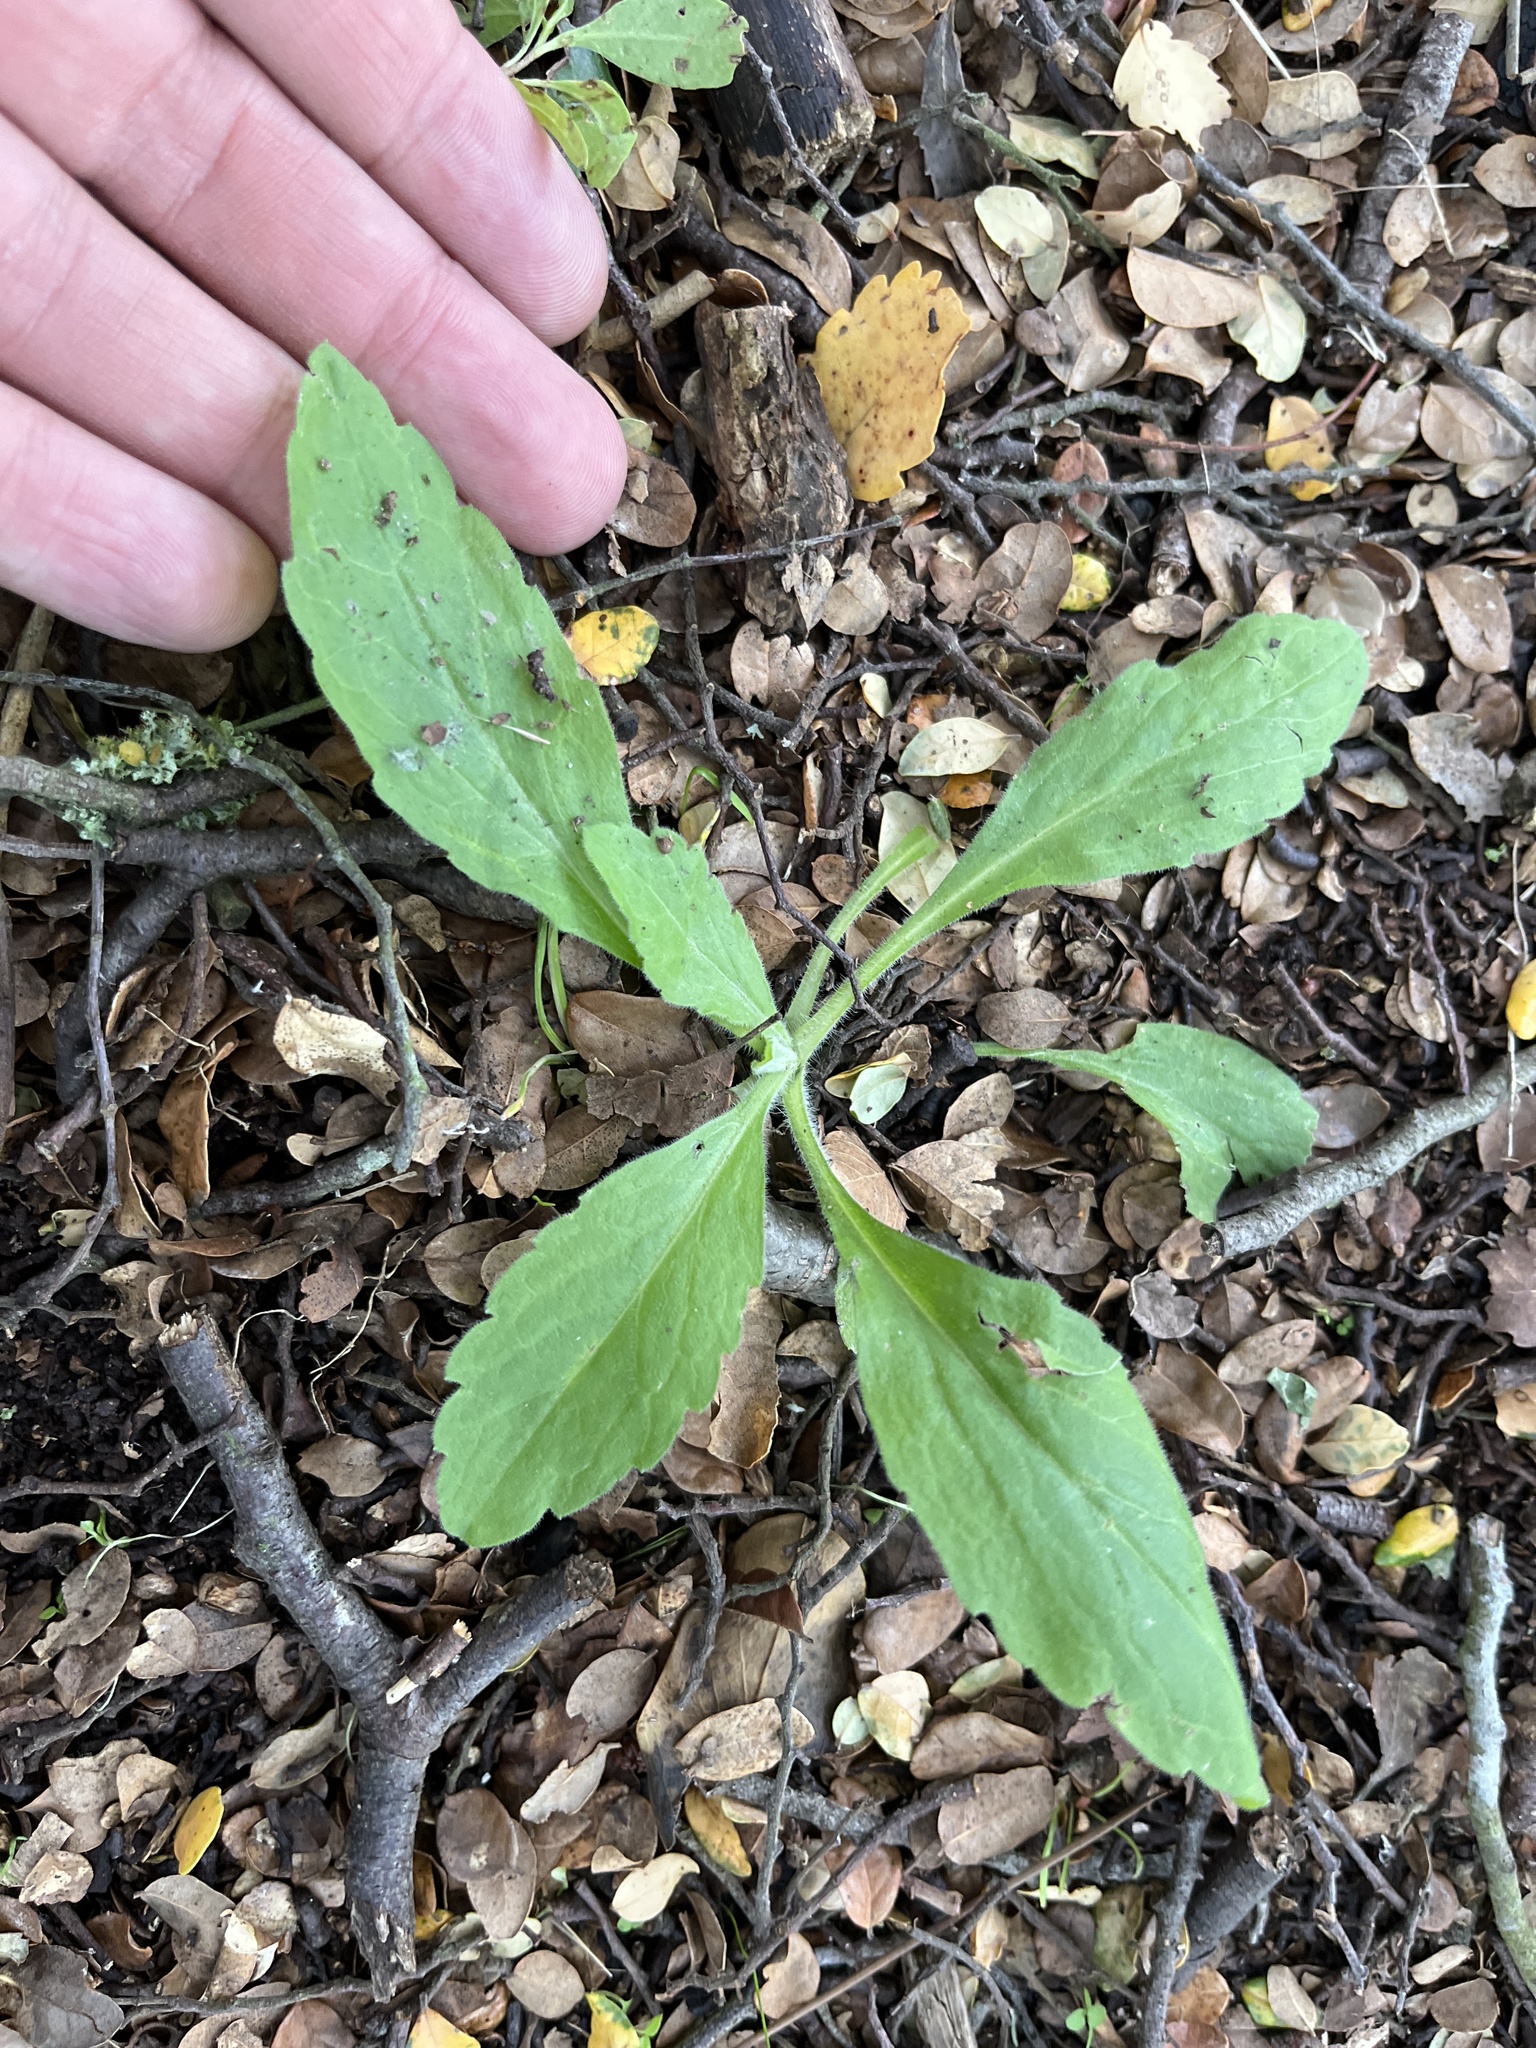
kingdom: Plantae
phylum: Tracheophyta
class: Magnoliopsida
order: Asterales
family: Asteraceae
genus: Erigeron
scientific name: Erigeron sumatrensis
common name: Daisy
